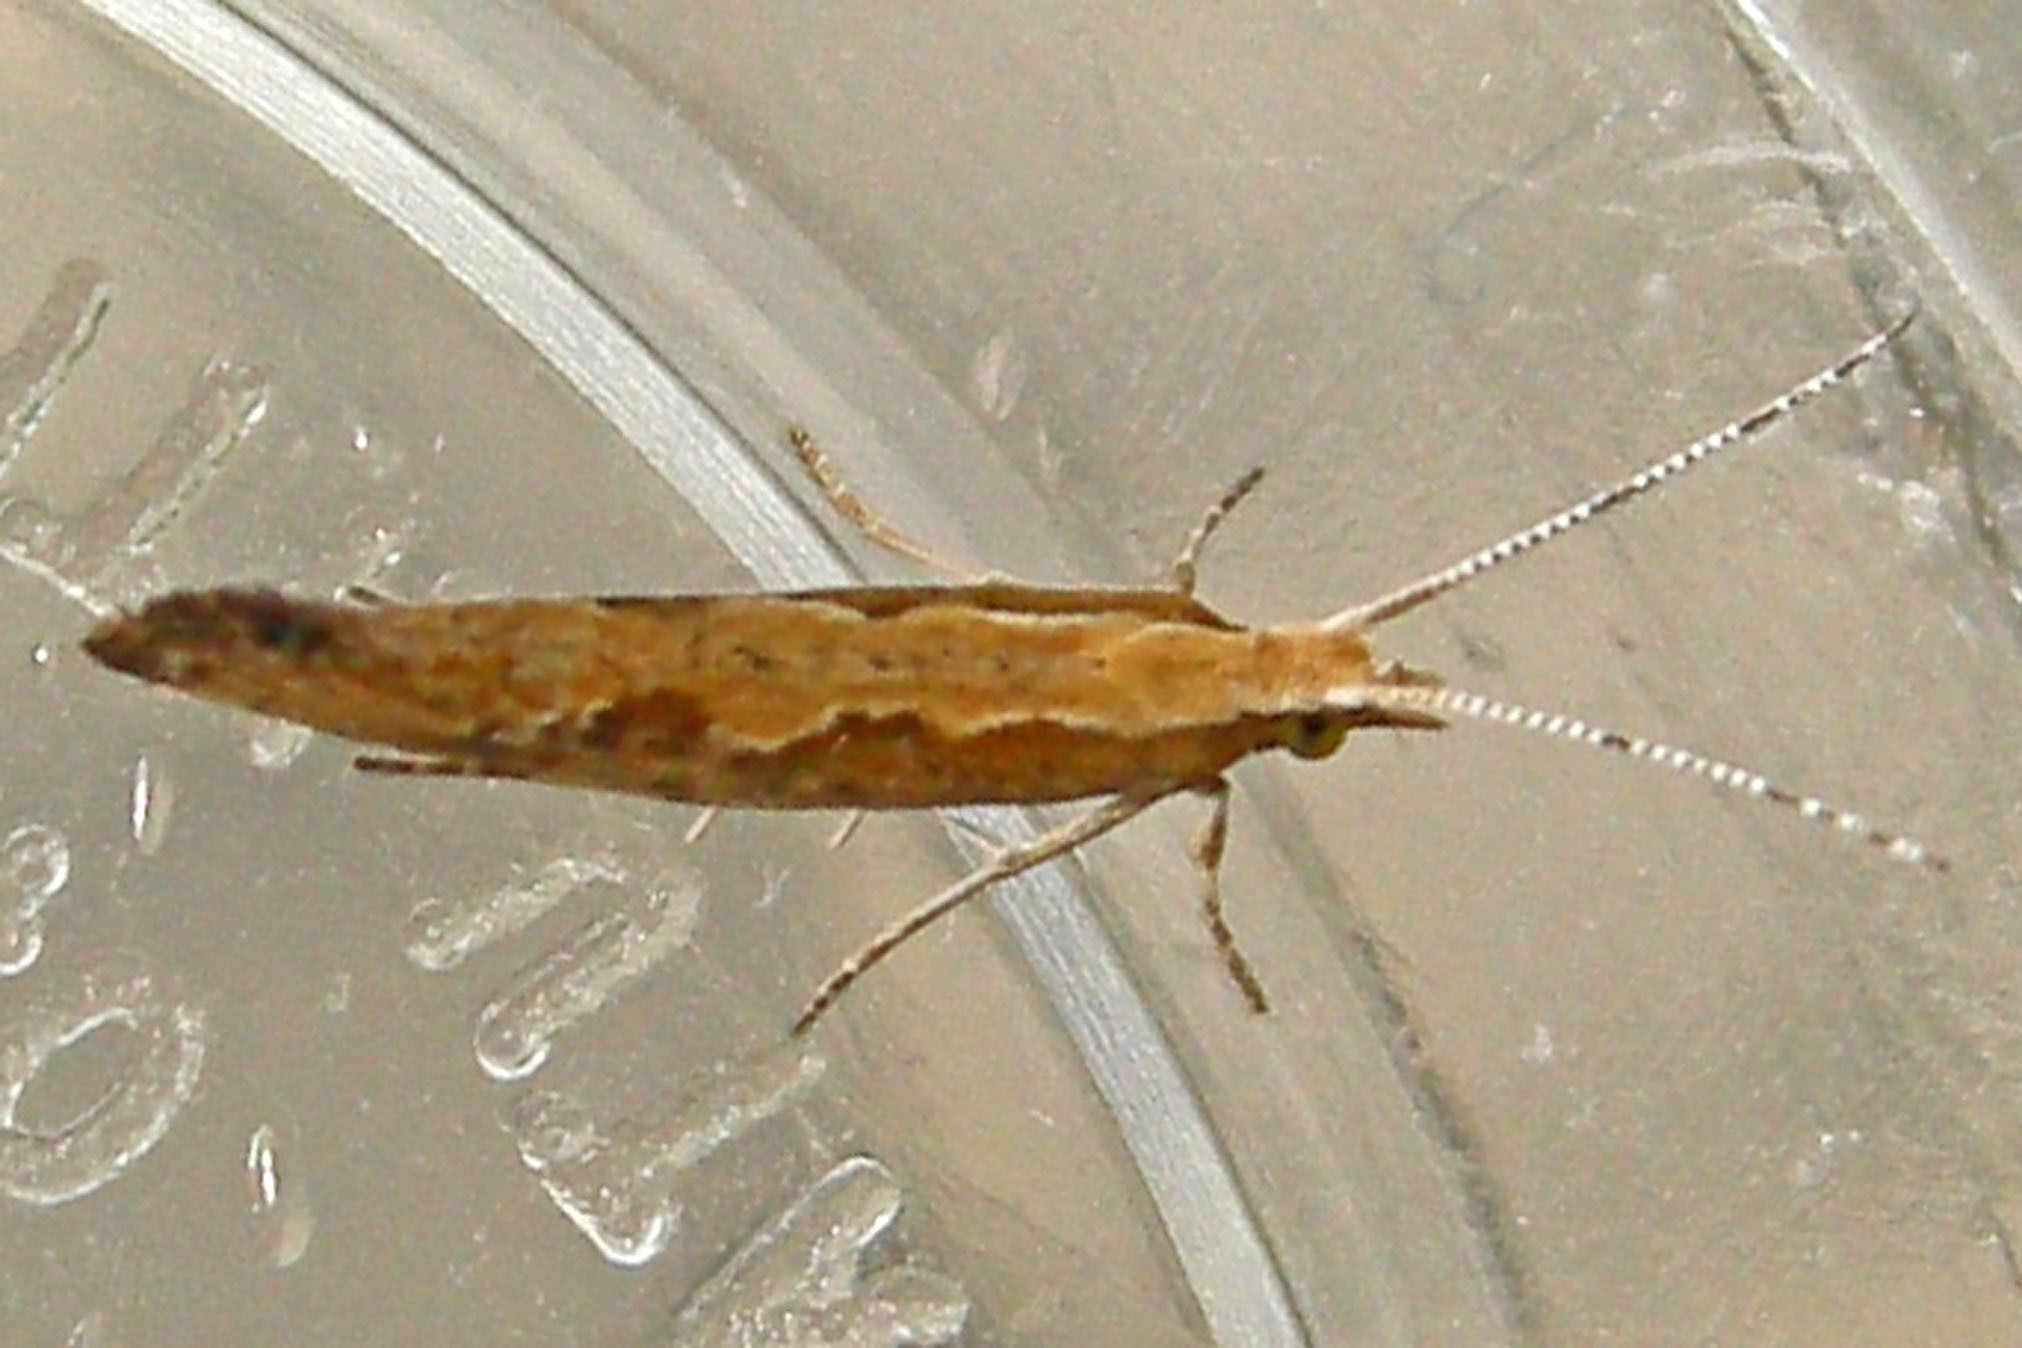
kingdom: Animalia
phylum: Arthropoda
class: Insecta
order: Lepidoptera
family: Plutellidae
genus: Plutella
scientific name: Plutella xylostella
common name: Diamond-back moth
